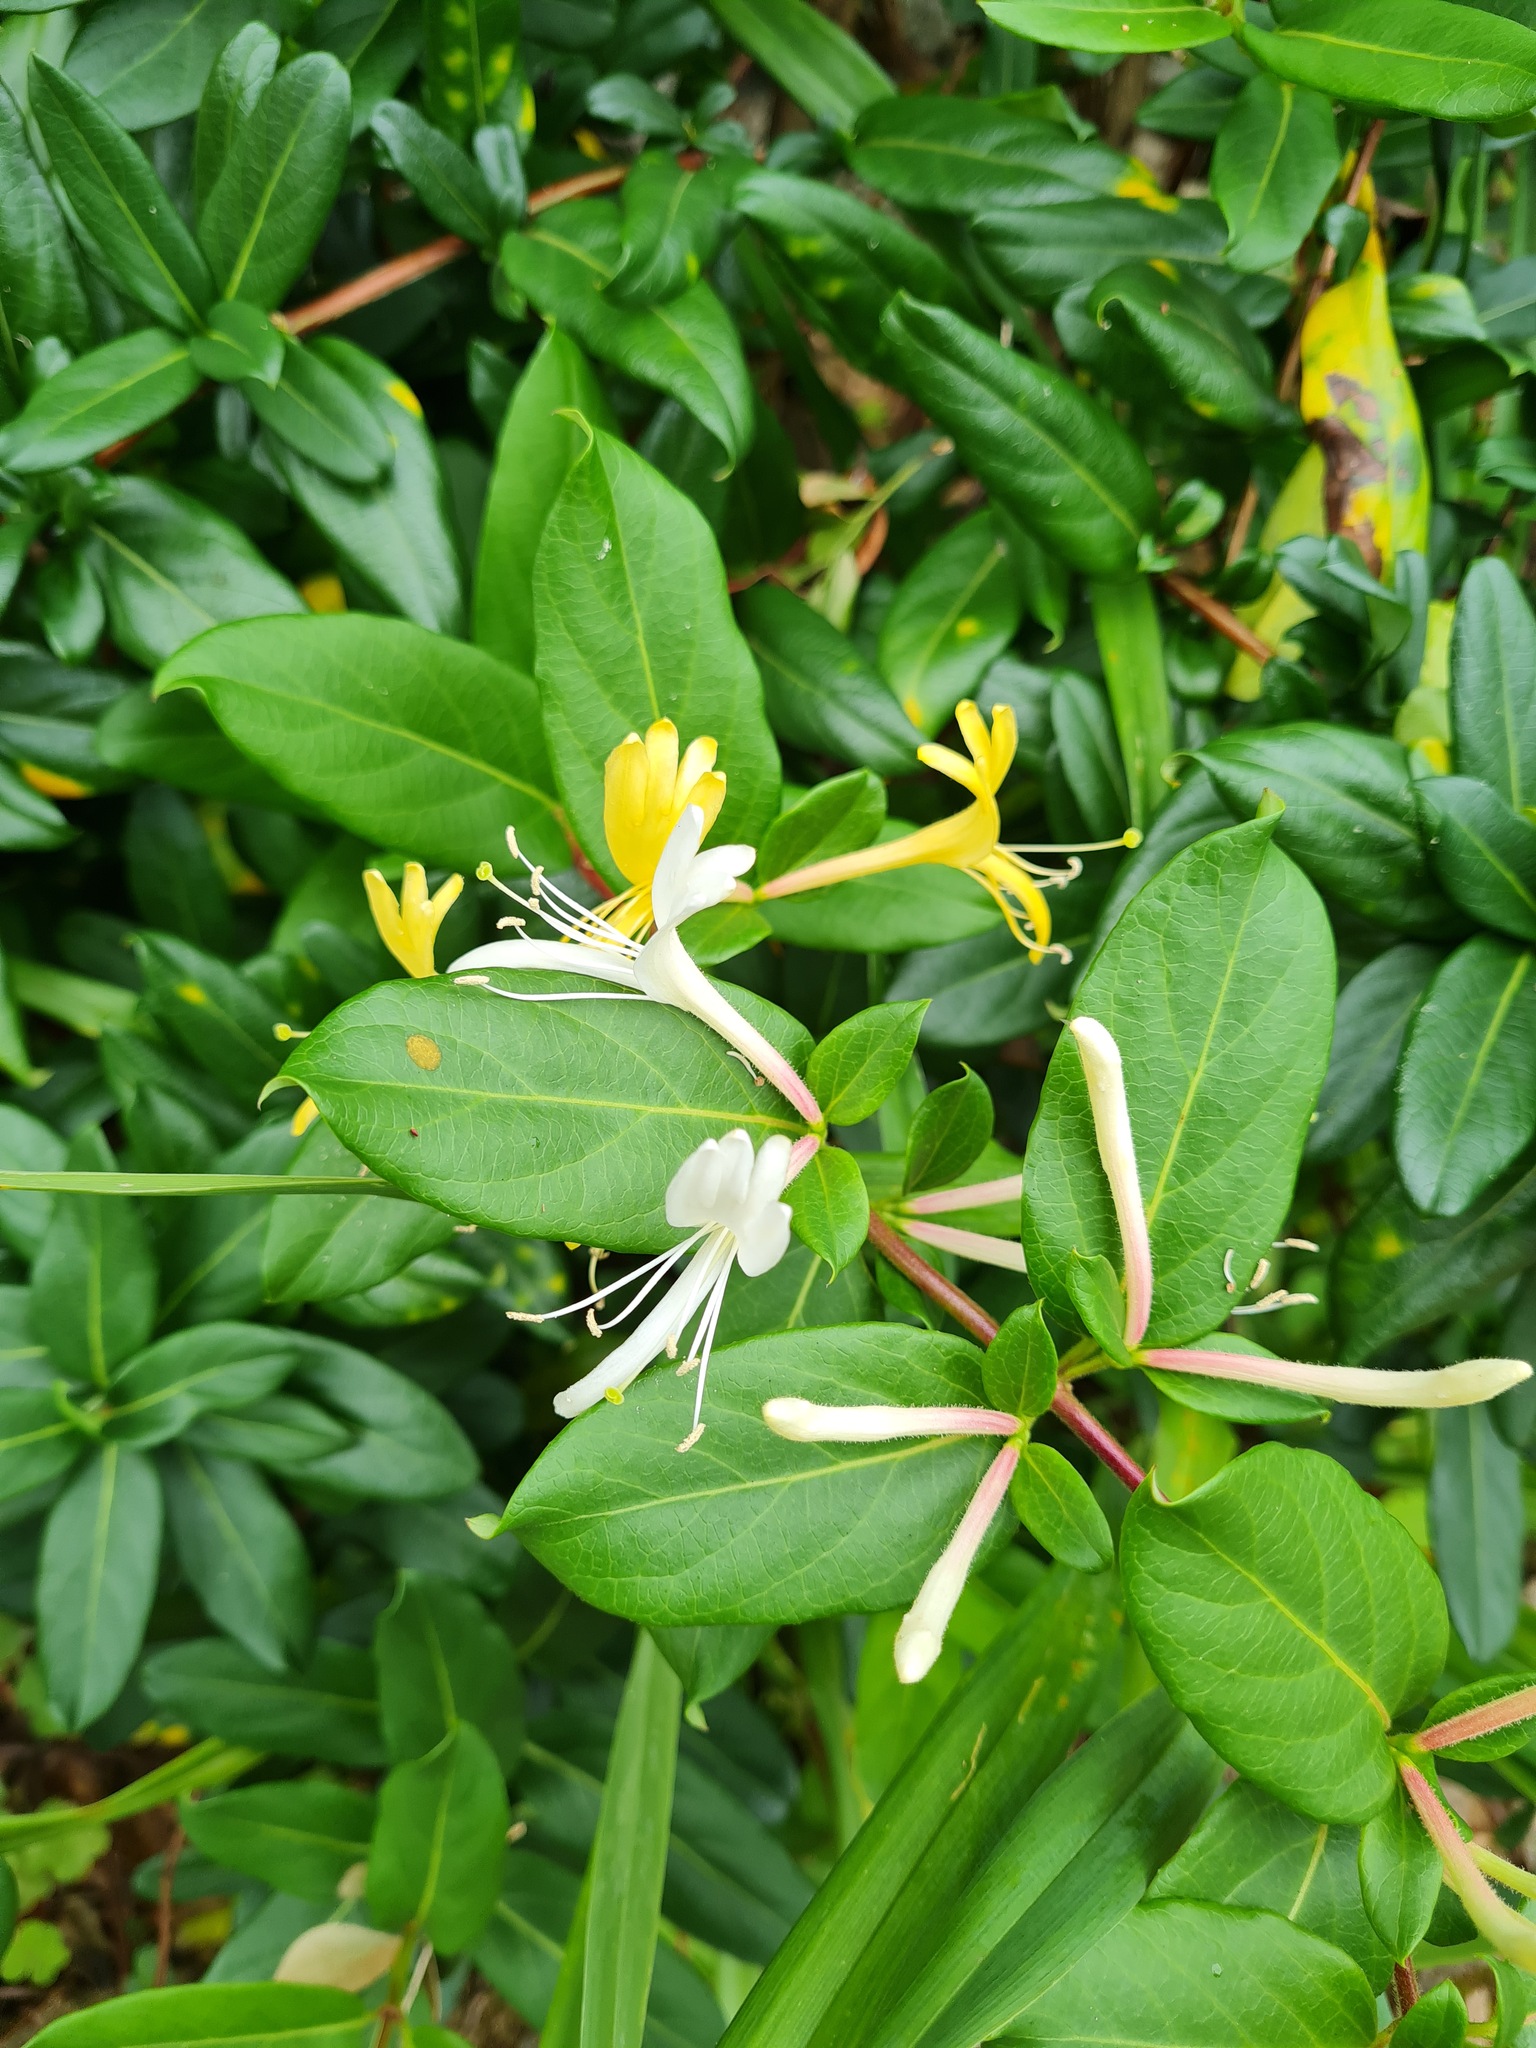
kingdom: Plantae
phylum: Tracheophyta
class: Magnoliopsida
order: Dipsacales
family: Caprifoliaceae
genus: Lonicera
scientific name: Lonicera japonica
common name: Japanese honeysuckle
